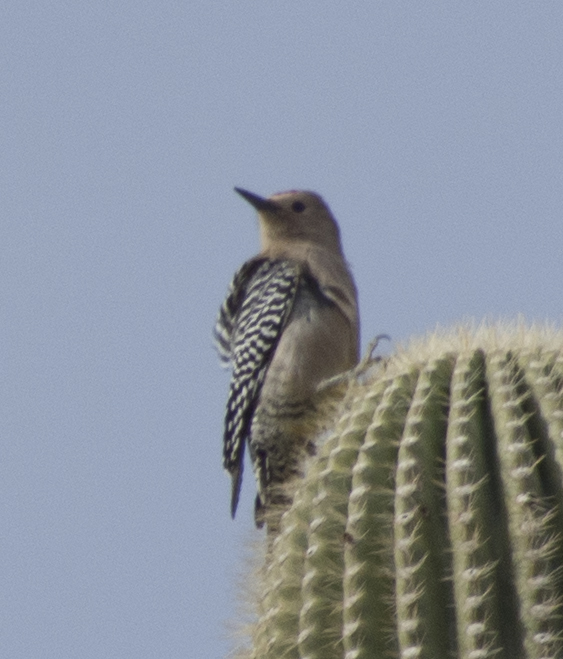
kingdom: Animalia
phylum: Chordata
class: Aves
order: Piciformes
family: Picidae
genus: Melanerpes
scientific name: Melanerpes uropygialis
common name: Gila woodpecker
